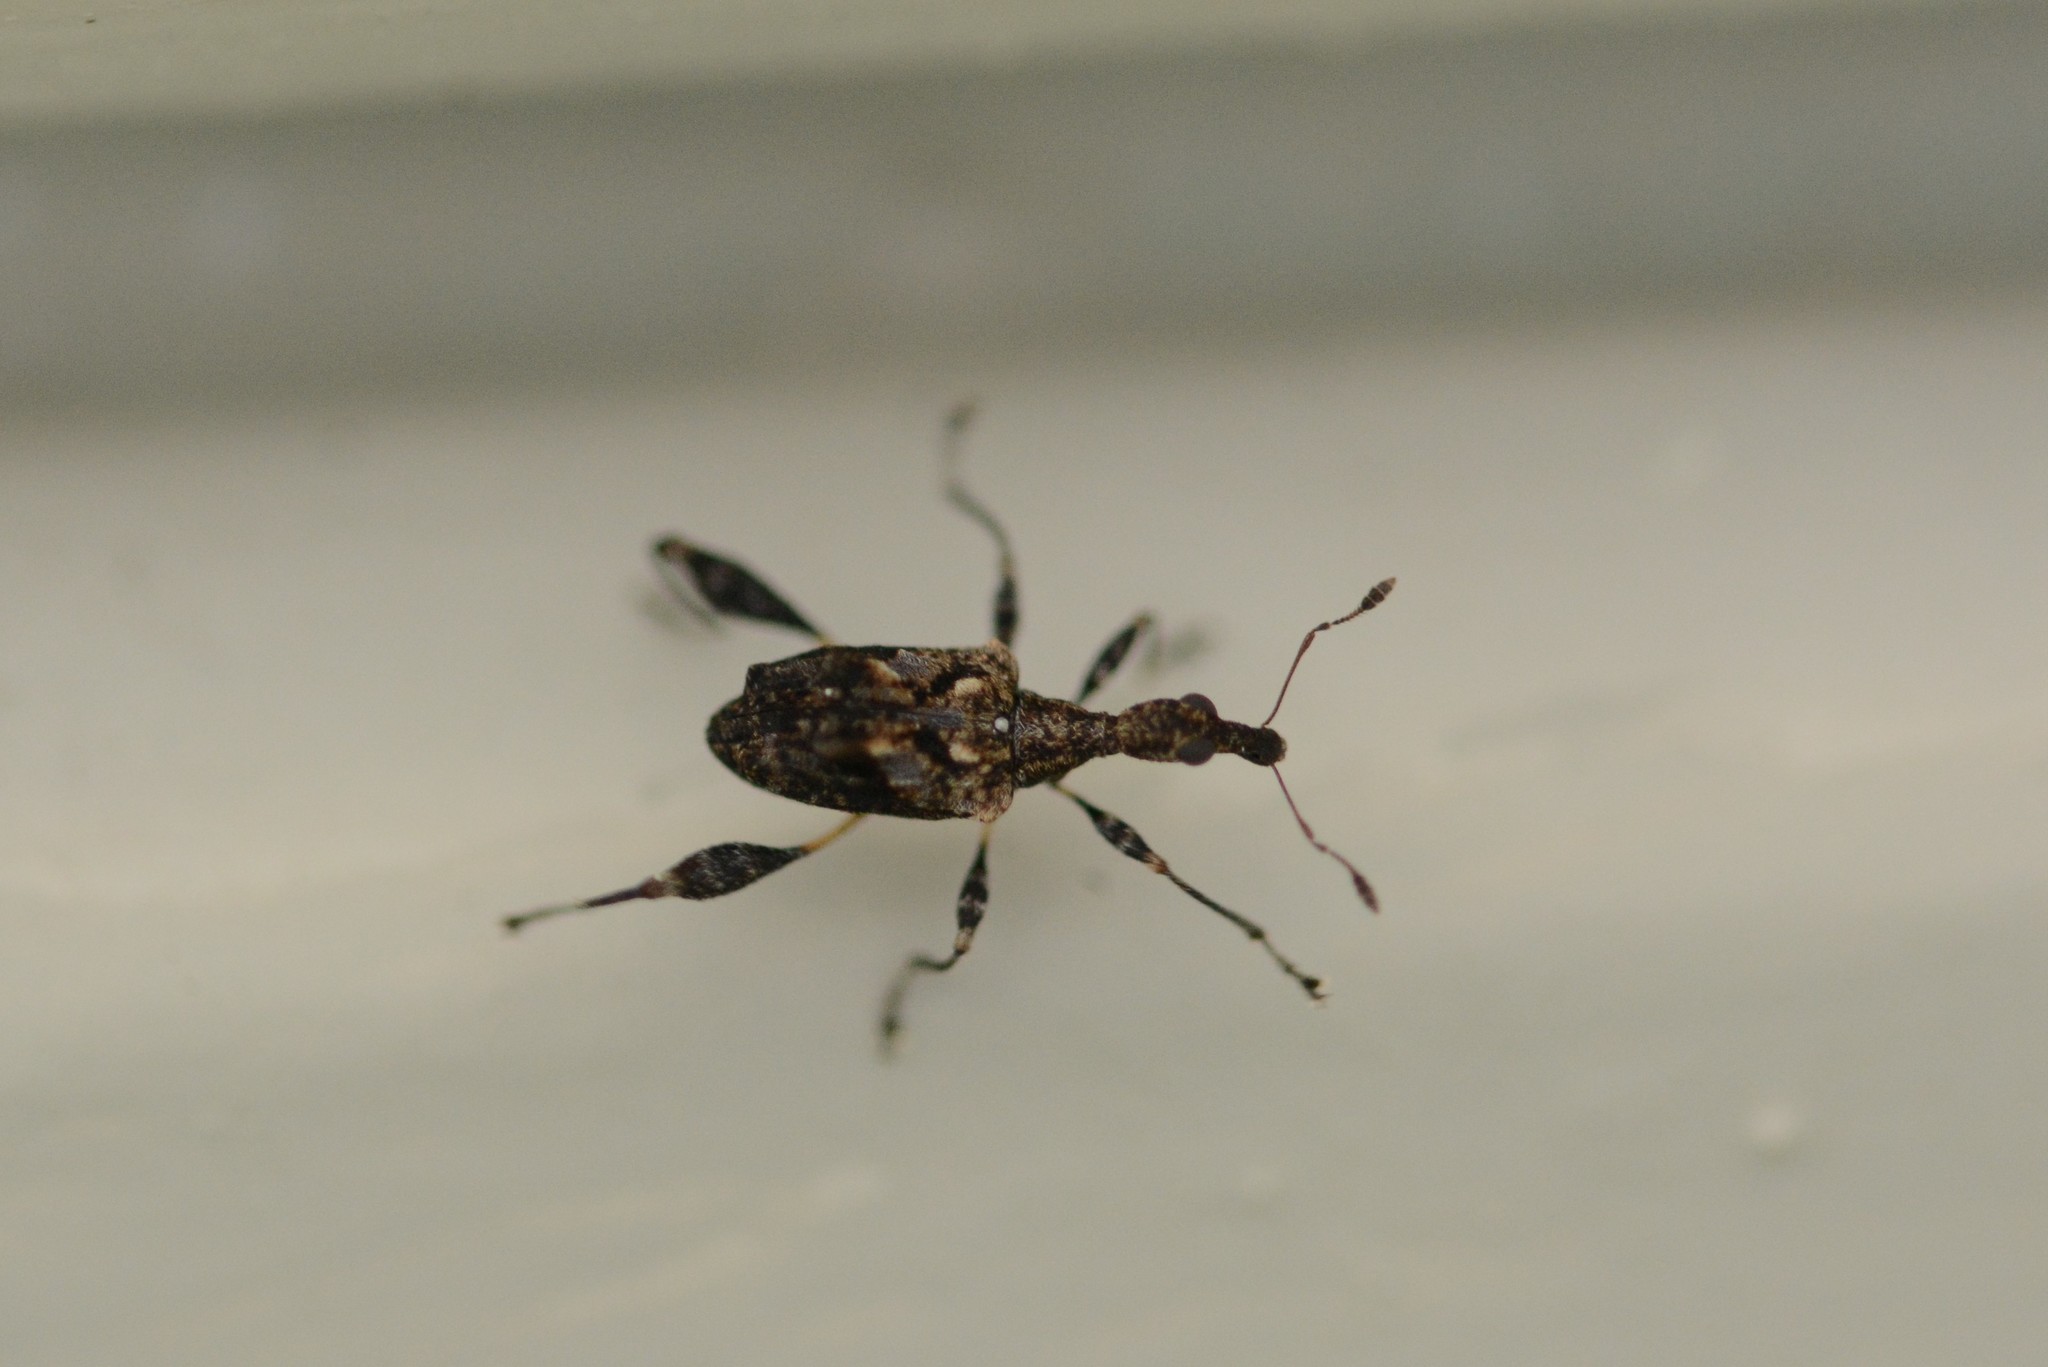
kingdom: Animalia
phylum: Arthropoda
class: Insecta
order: Coleoptera
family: Curculionidae
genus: Stephanorhynchus
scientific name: Stephanorhynchus lawsoni
